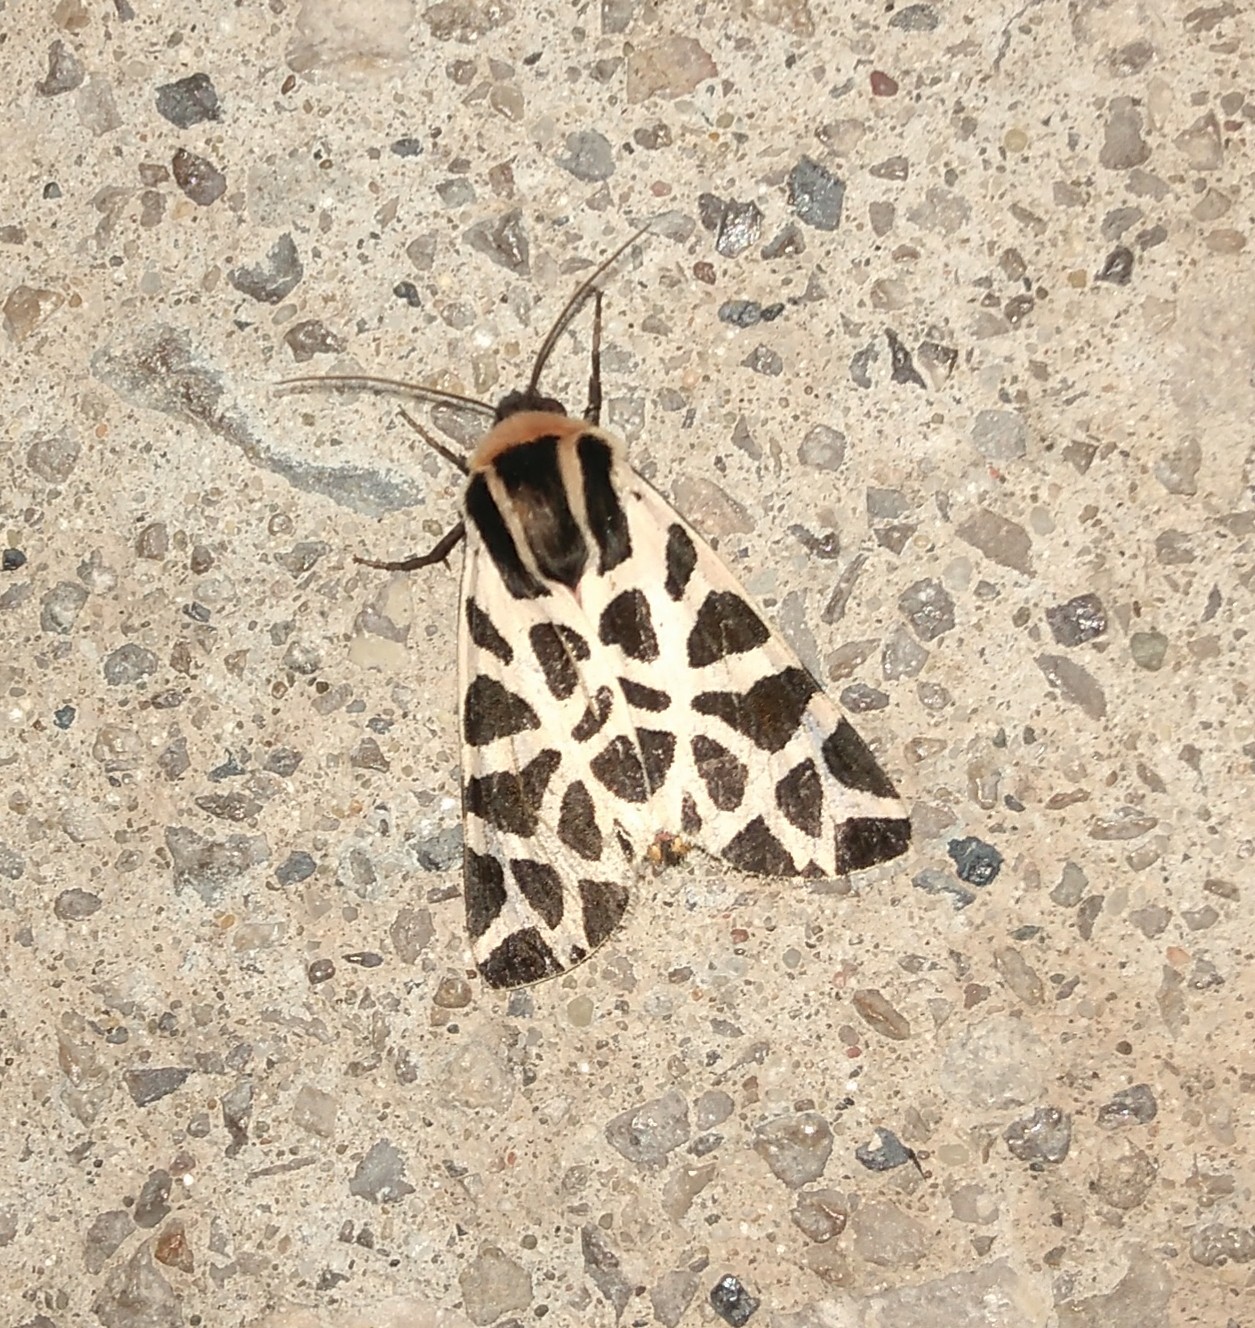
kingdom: Animalia
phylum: Arthropoda
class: Insecta
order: Lepidoptera
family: Erebidae
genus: Cymbalophora
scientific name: Cymbalophora pudica
